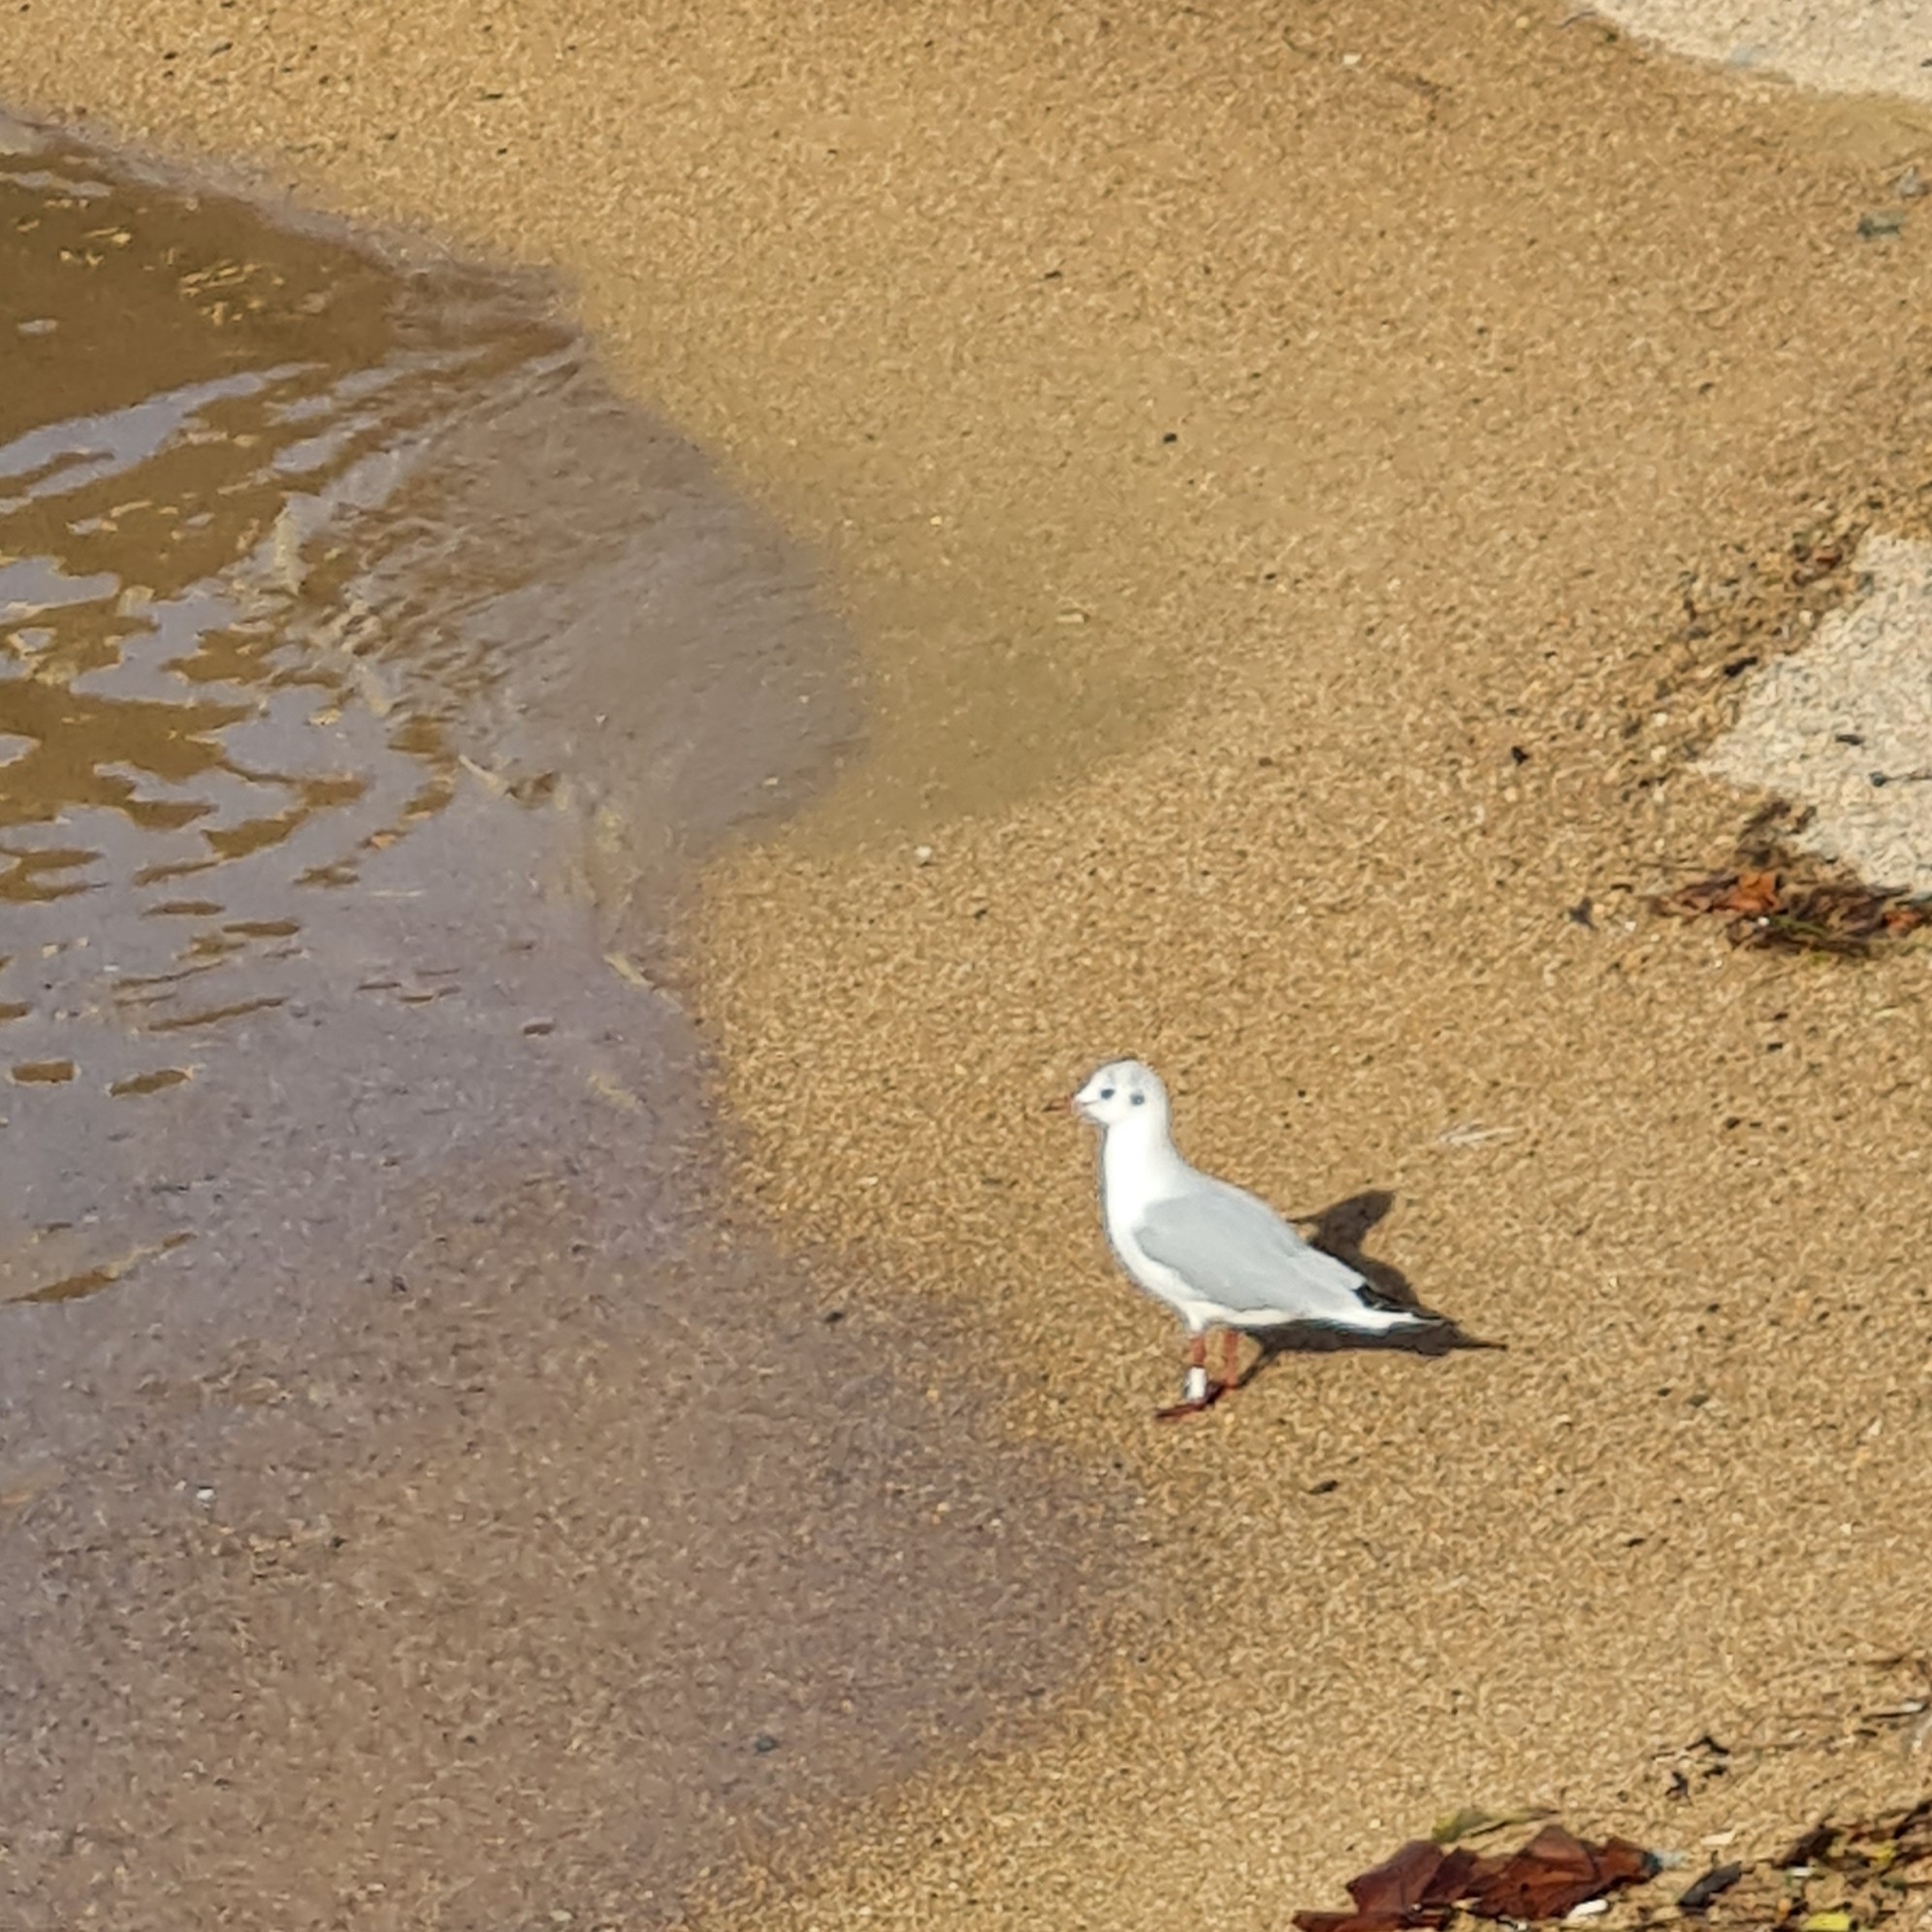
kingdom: Animalia
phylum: Chordata
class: Aves
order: Charadriiformes
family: Laridae
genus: Chroicocephalus
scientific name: Chroicocephalus ridibundus
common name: Black-headed gull
